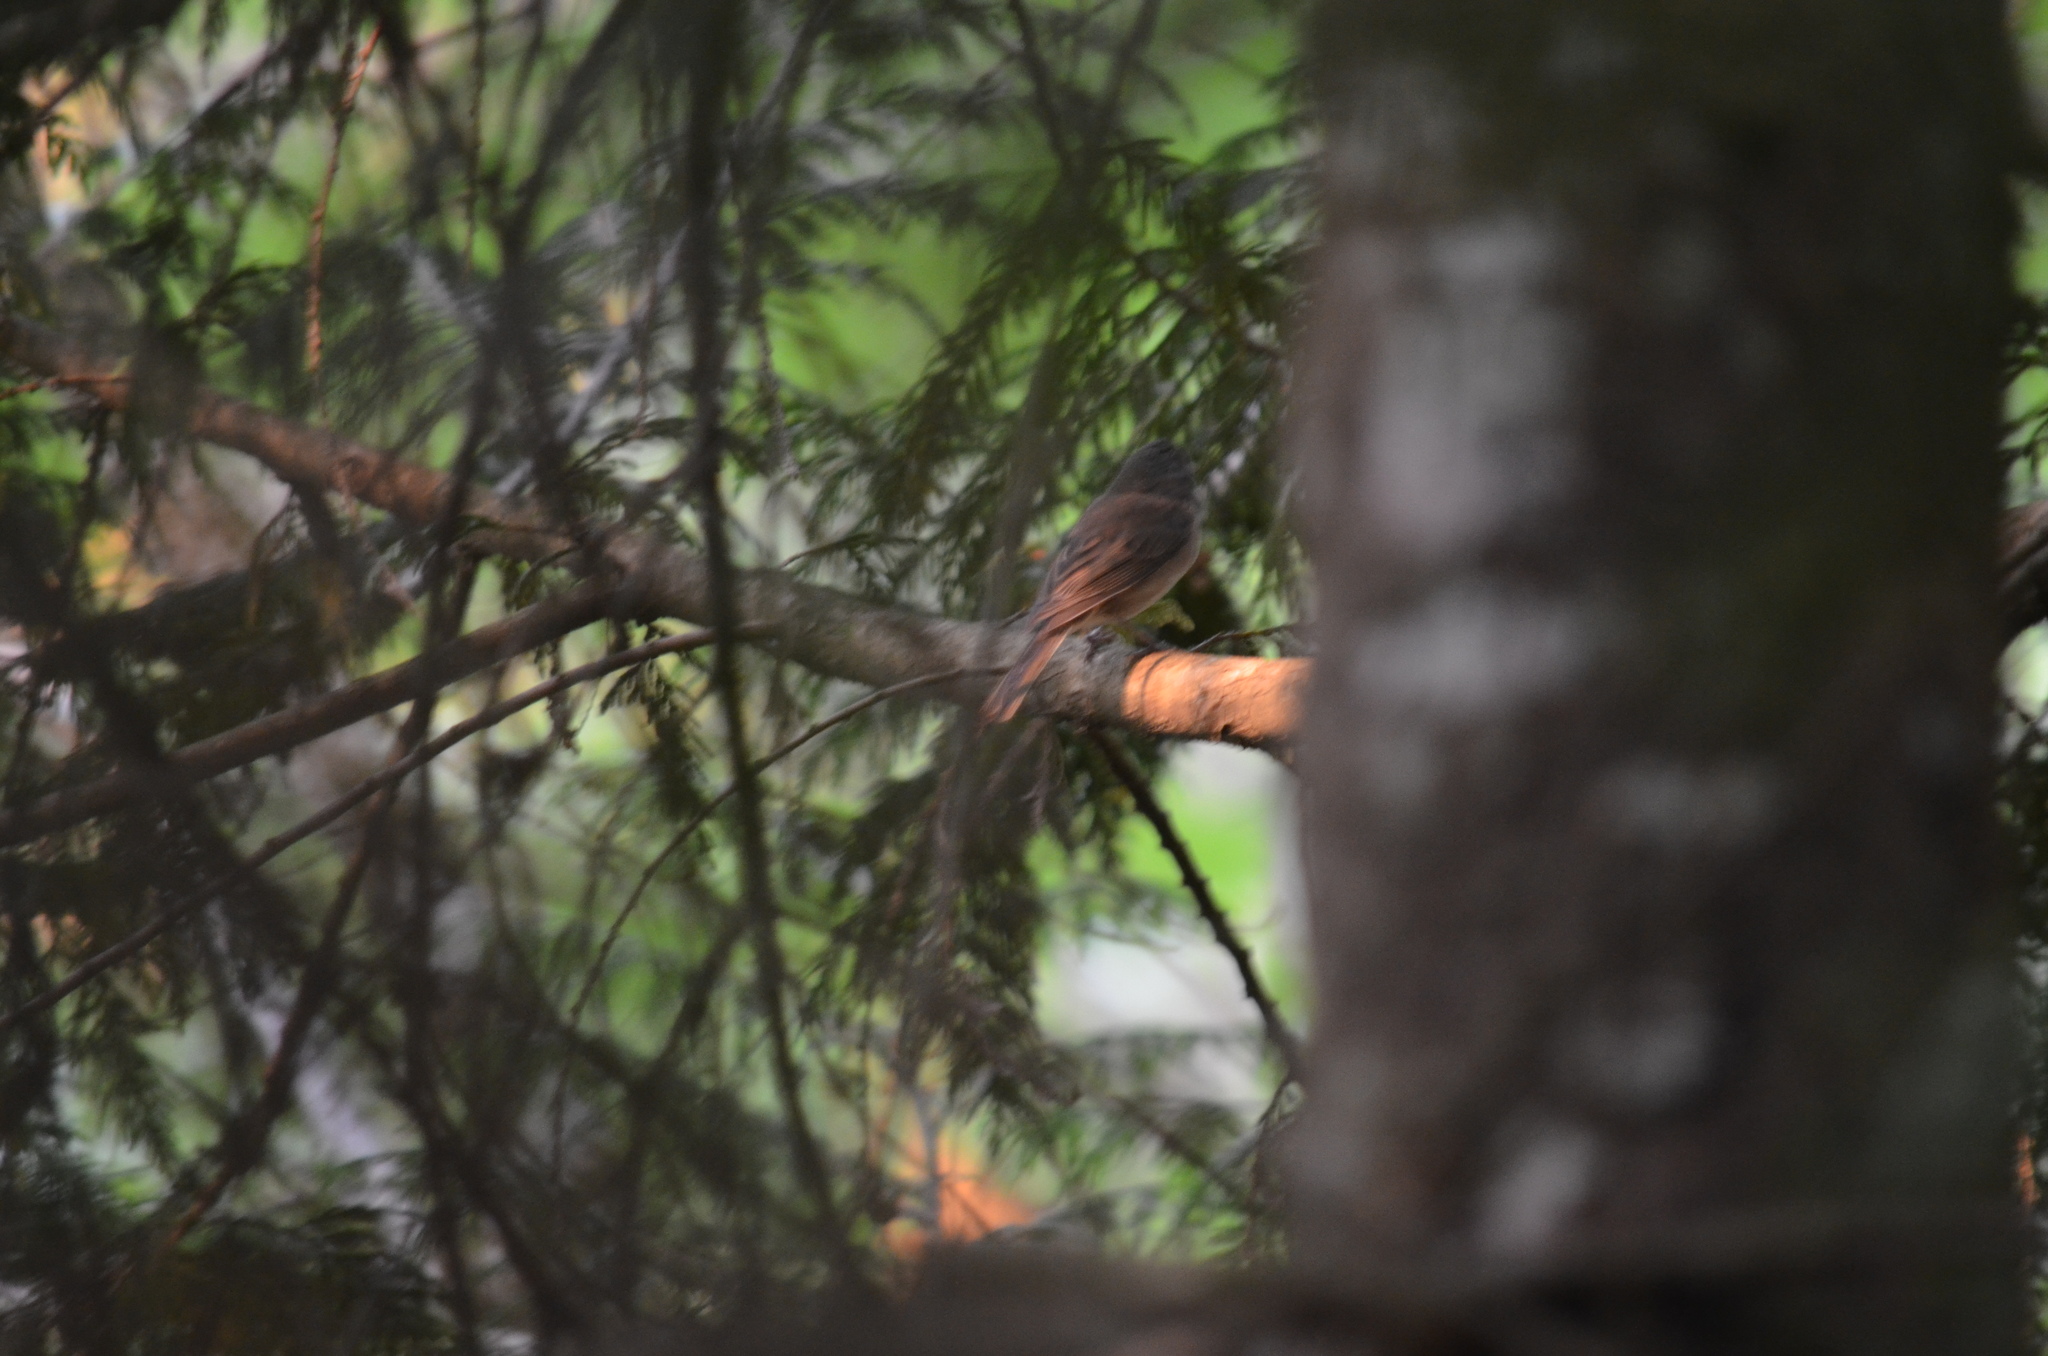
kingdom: Animalia
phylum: Chordata
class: Aves
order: Passeriformes
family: Passerellidae
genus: Junco
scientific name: Junco hyemalis
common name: Dark-eyed junco
